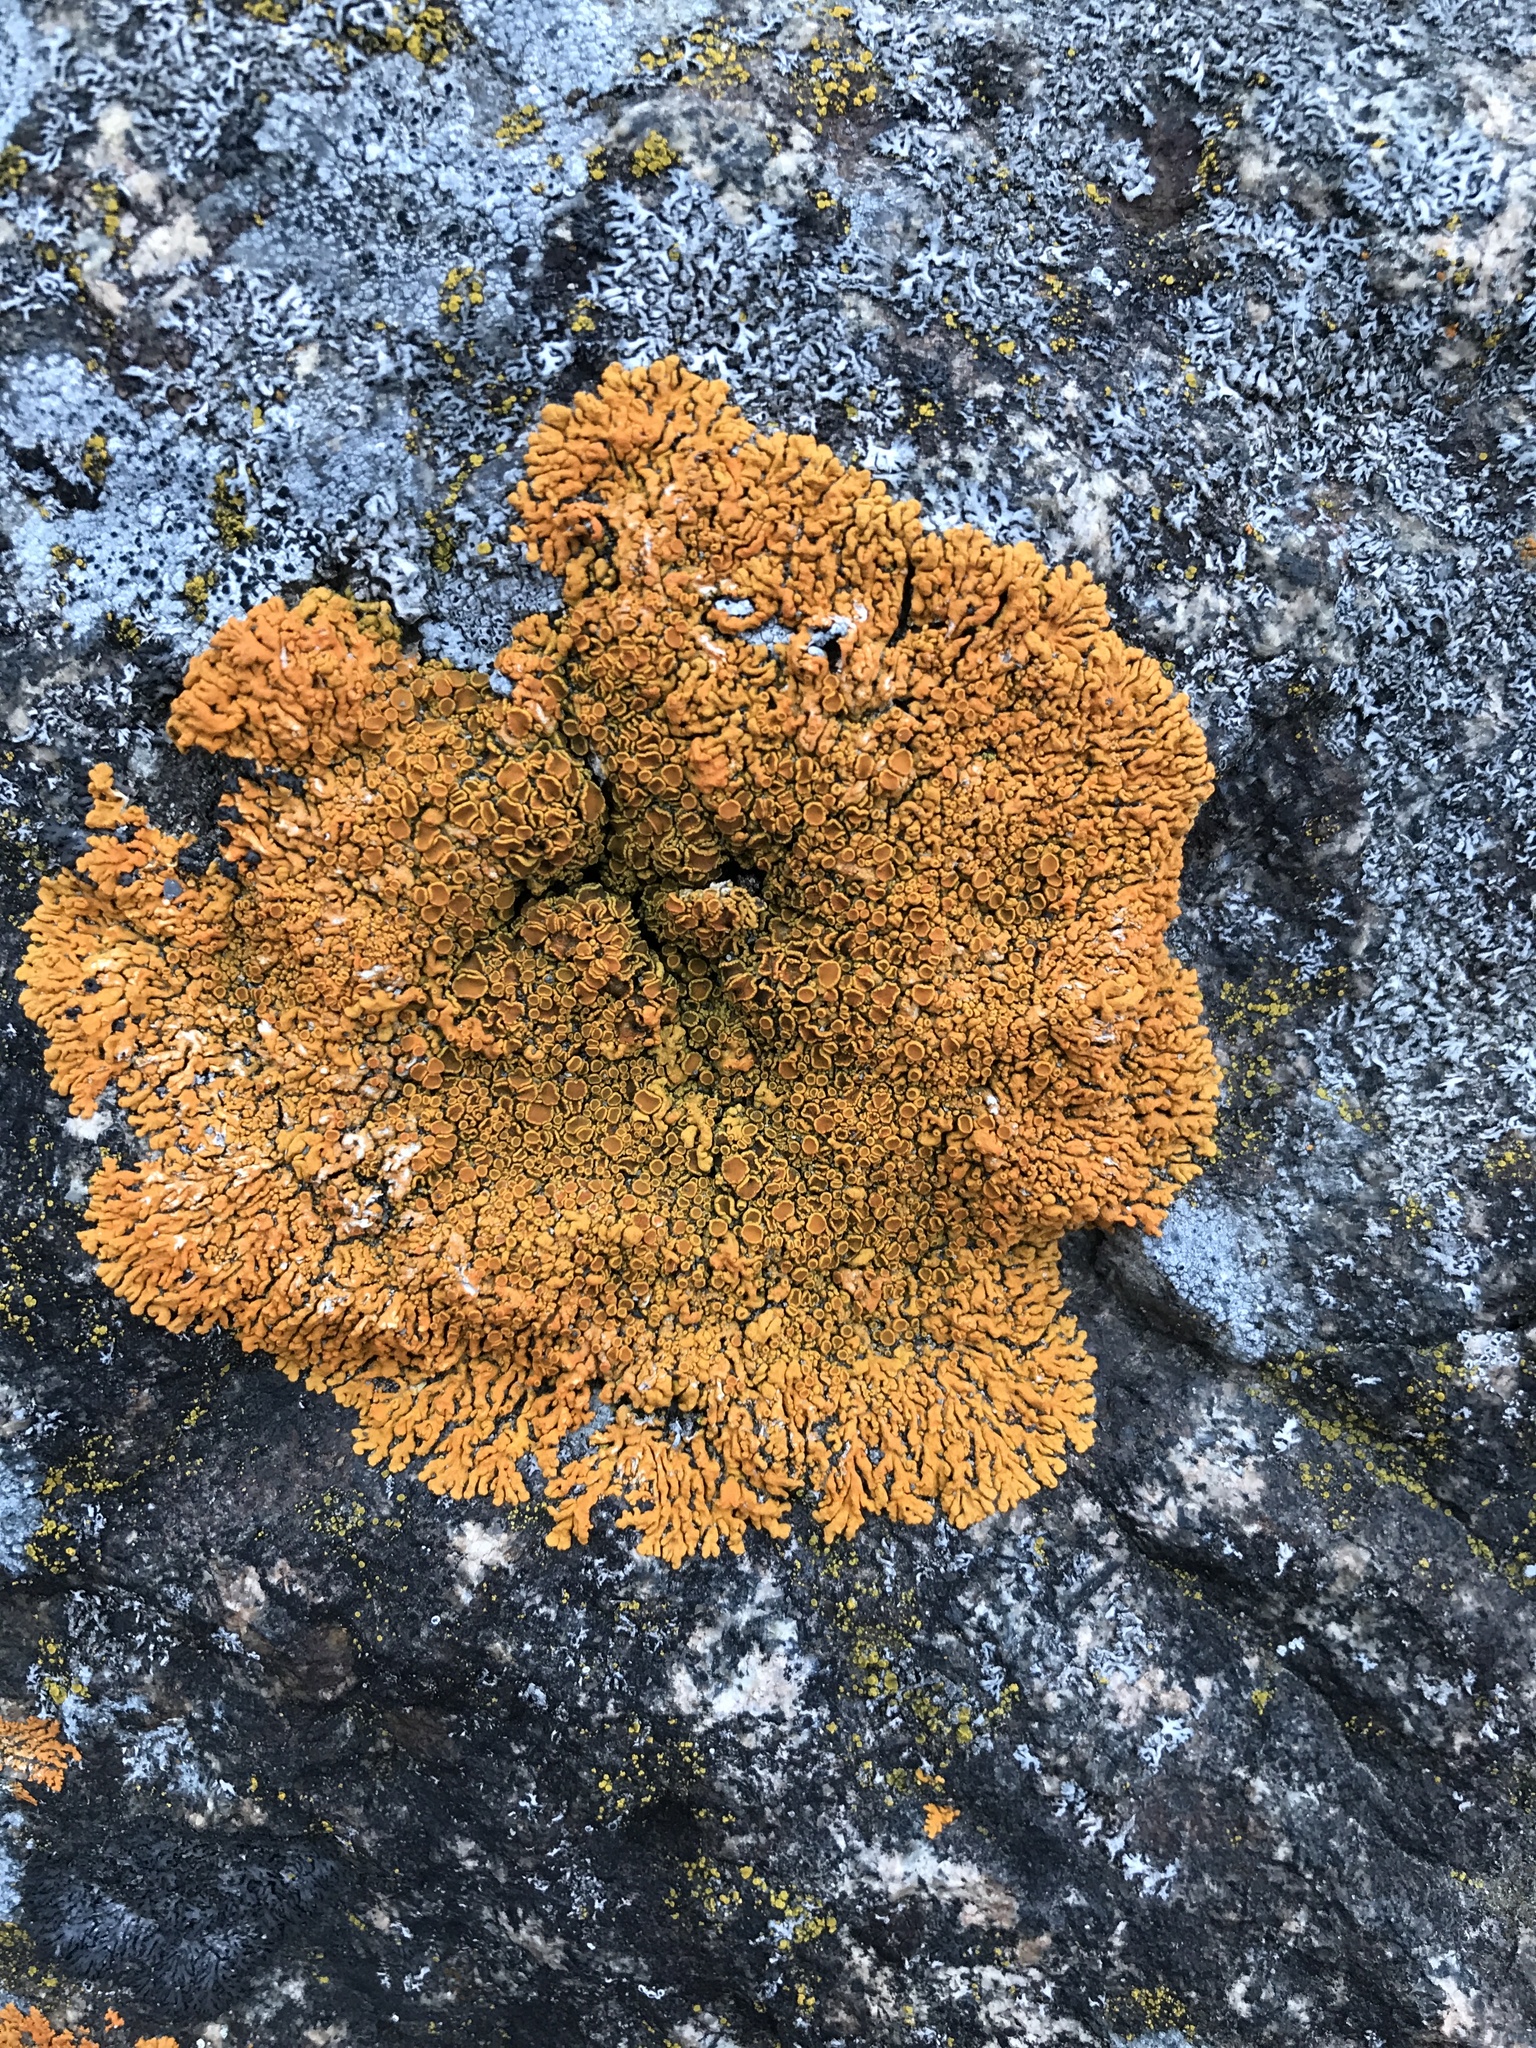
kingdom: Fungi
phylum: Ascomycota
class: Lecanoromycetes
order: Teloschistales
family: Teloschistaceae
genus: Xanthoria
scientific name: Xanthoria elegans
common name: Elegant sunburst lichen
